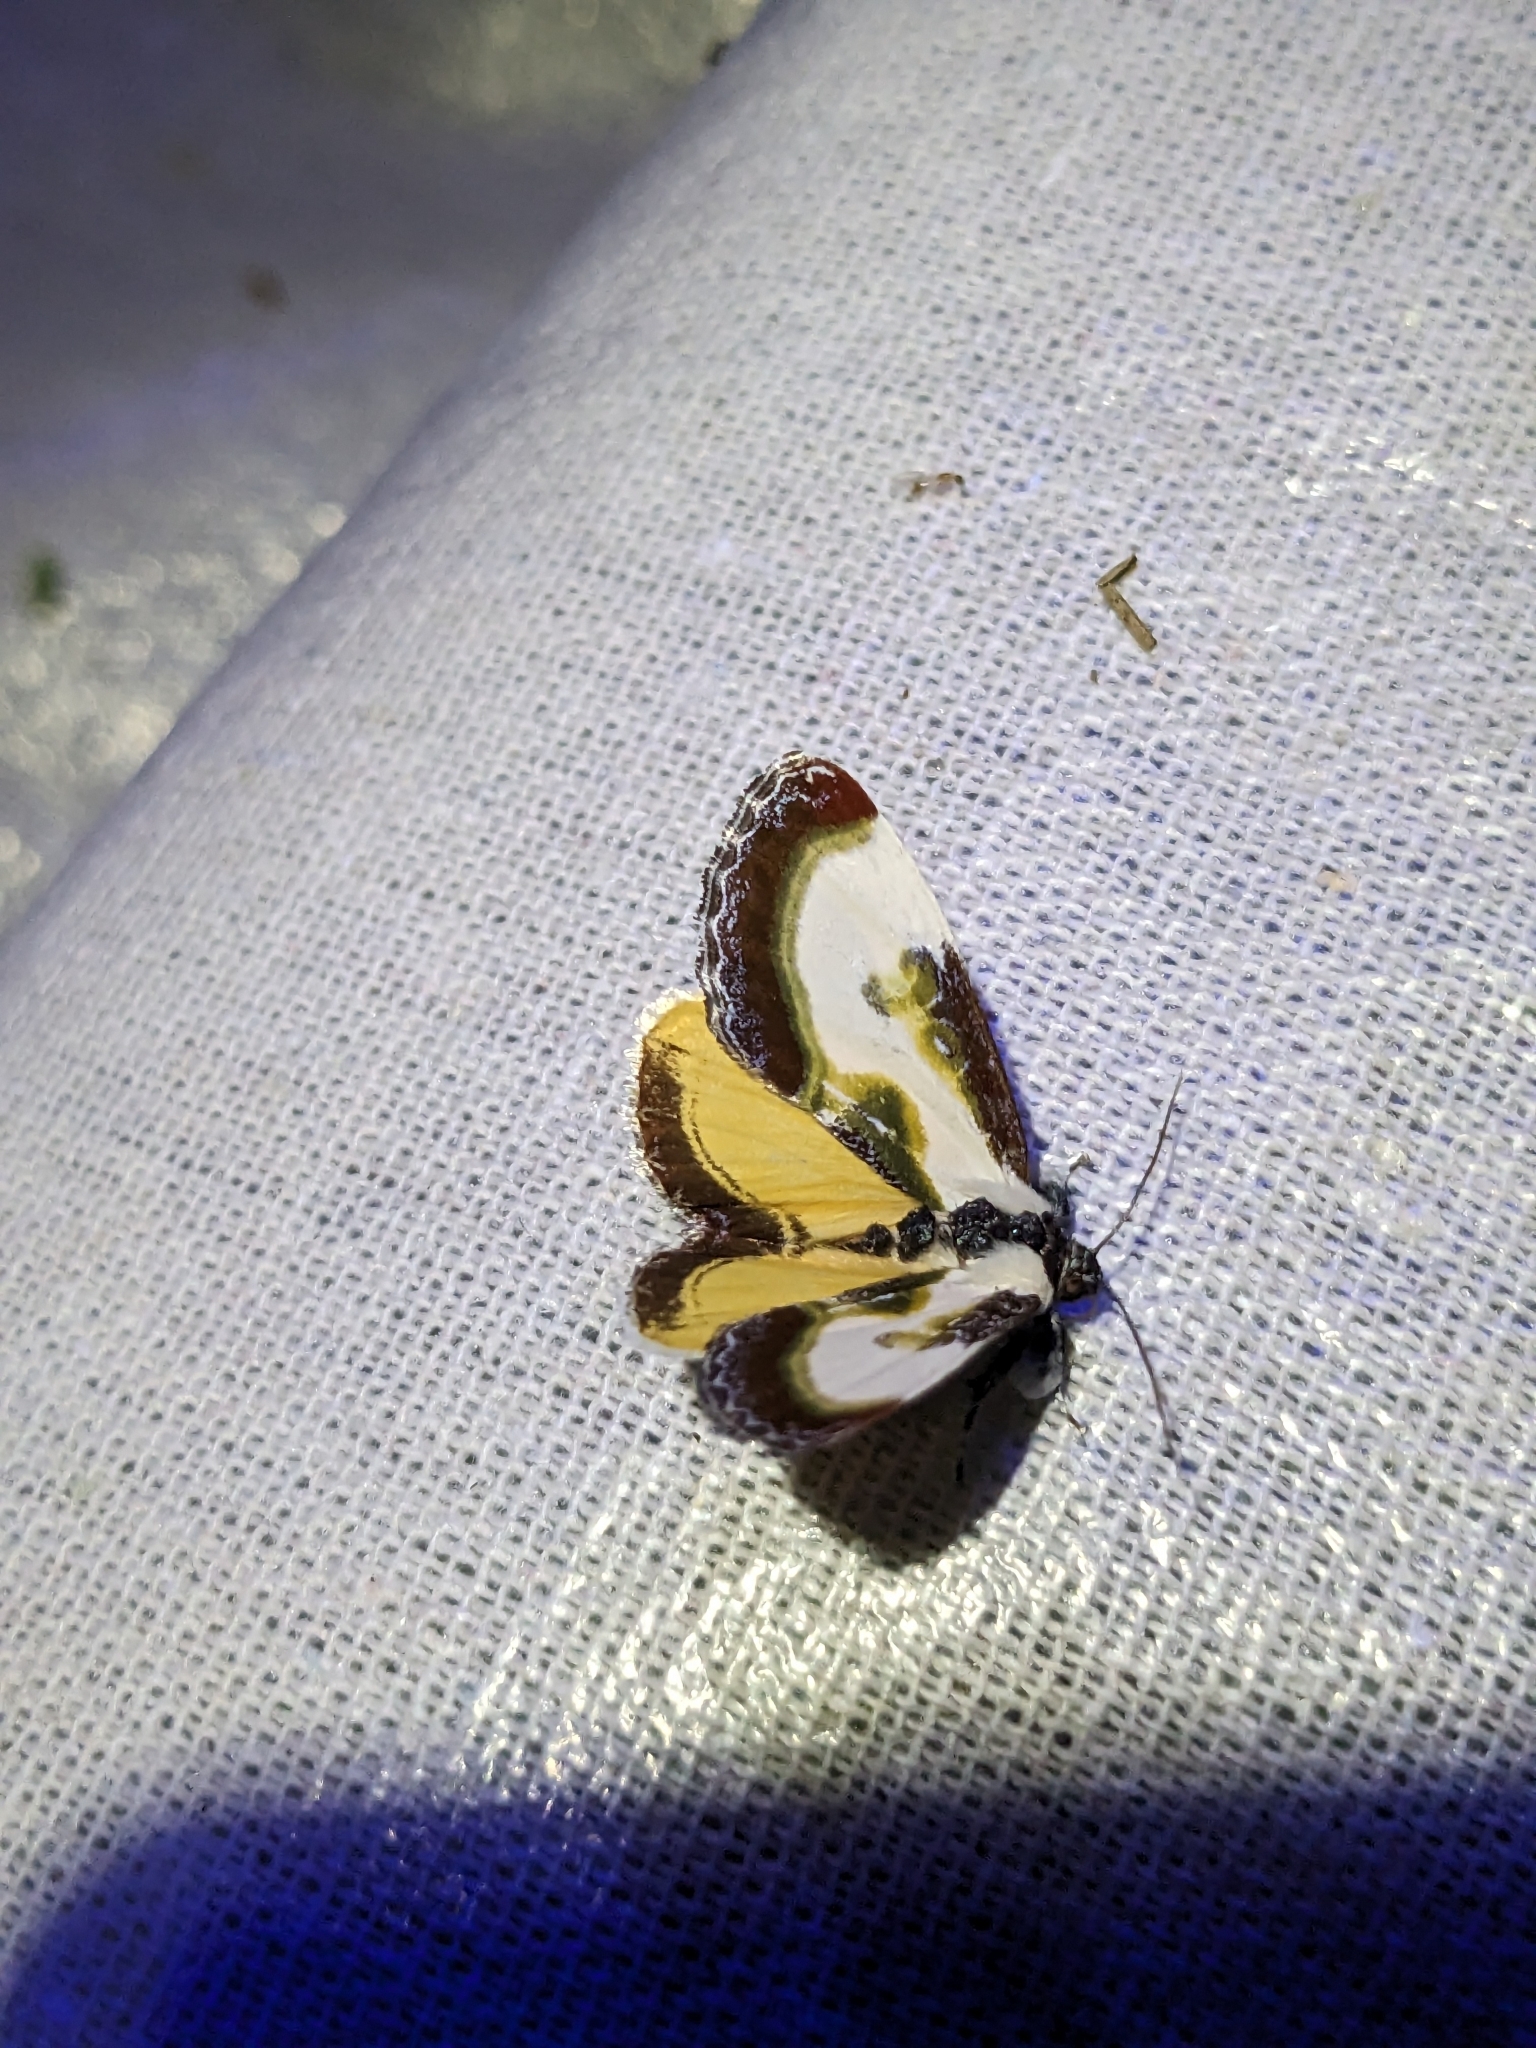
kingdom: Animalia
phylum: Arthropoda
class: Insecta
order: Lepidoptera
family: Noctuidae
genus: Eudryas
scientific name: Eudryas grata
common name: Beautiful wood-nymph
